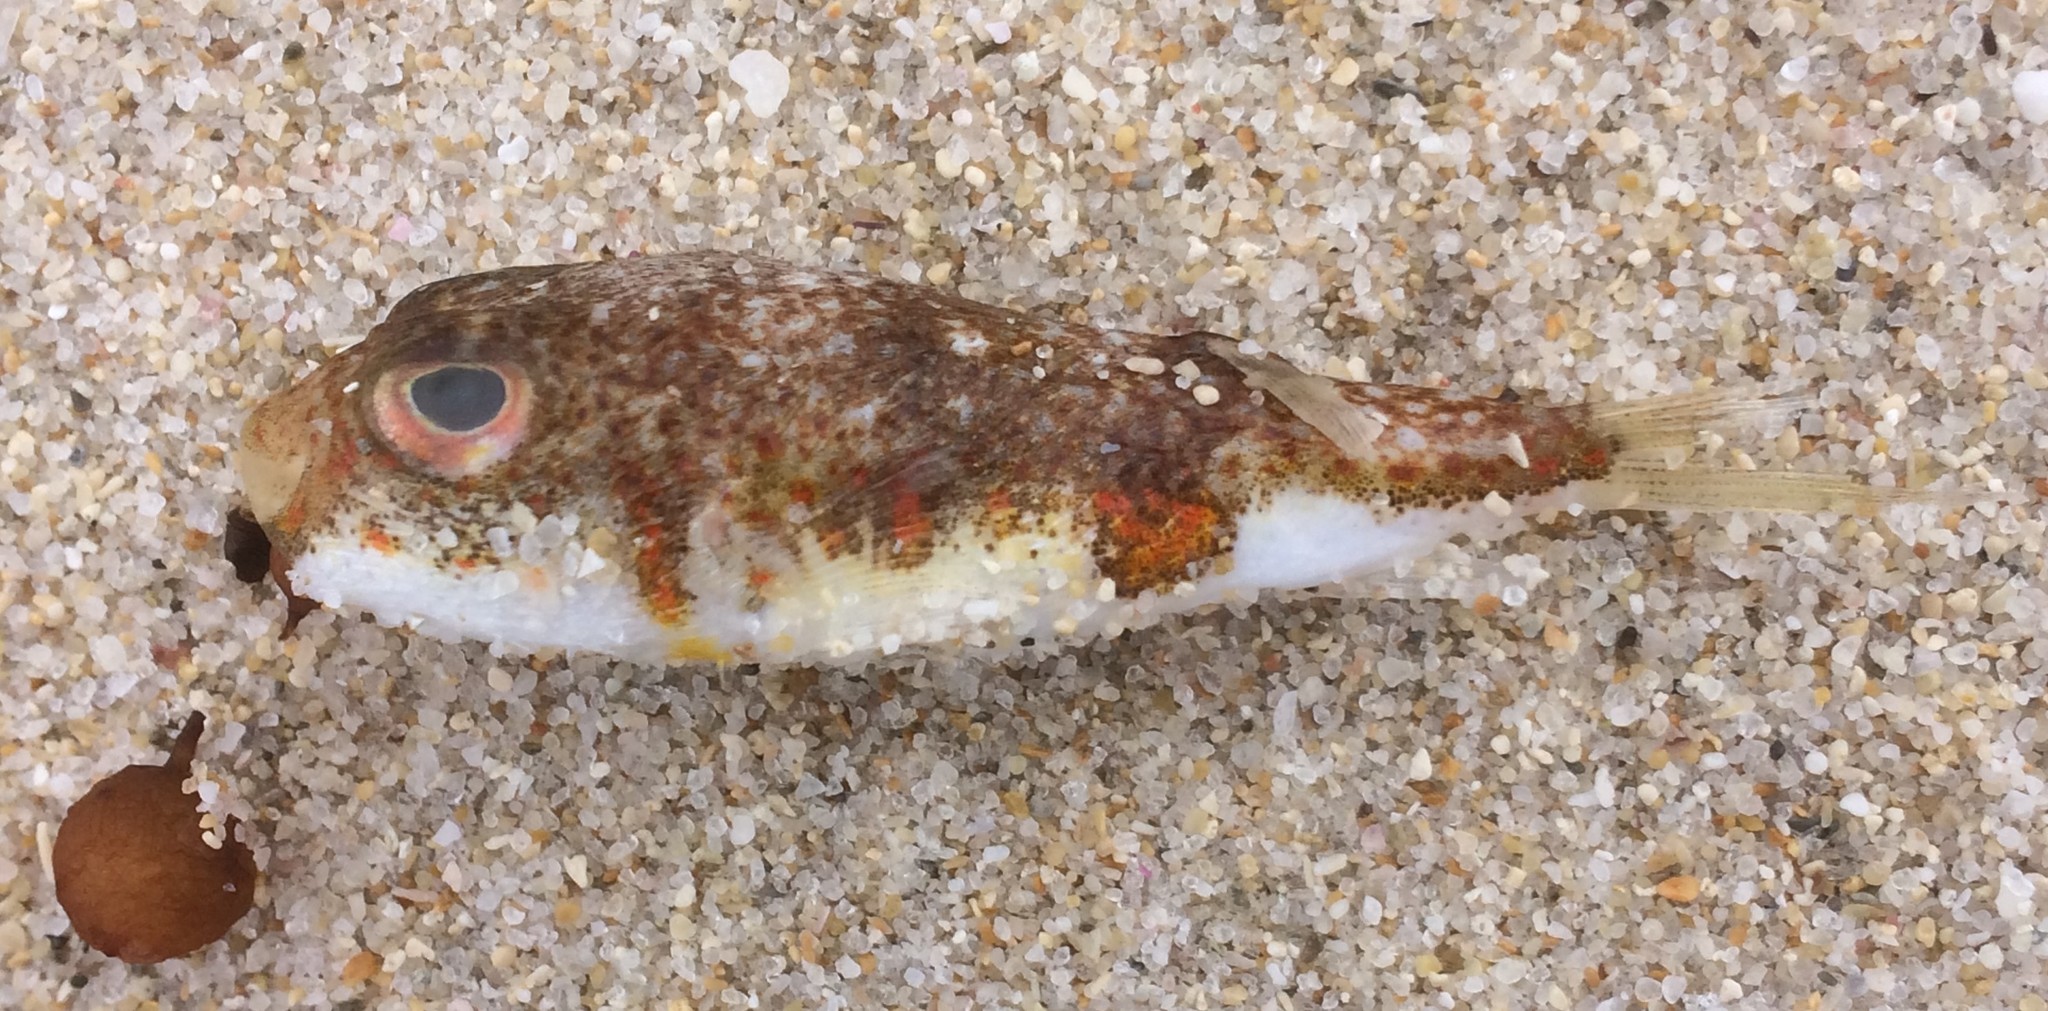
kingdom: Animalia
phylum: Chordata
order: Tetraodontiformes
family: Tetraodontidae
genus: Polyspina
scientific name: Polyspina piosae
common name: Orange-barred pufferfish
